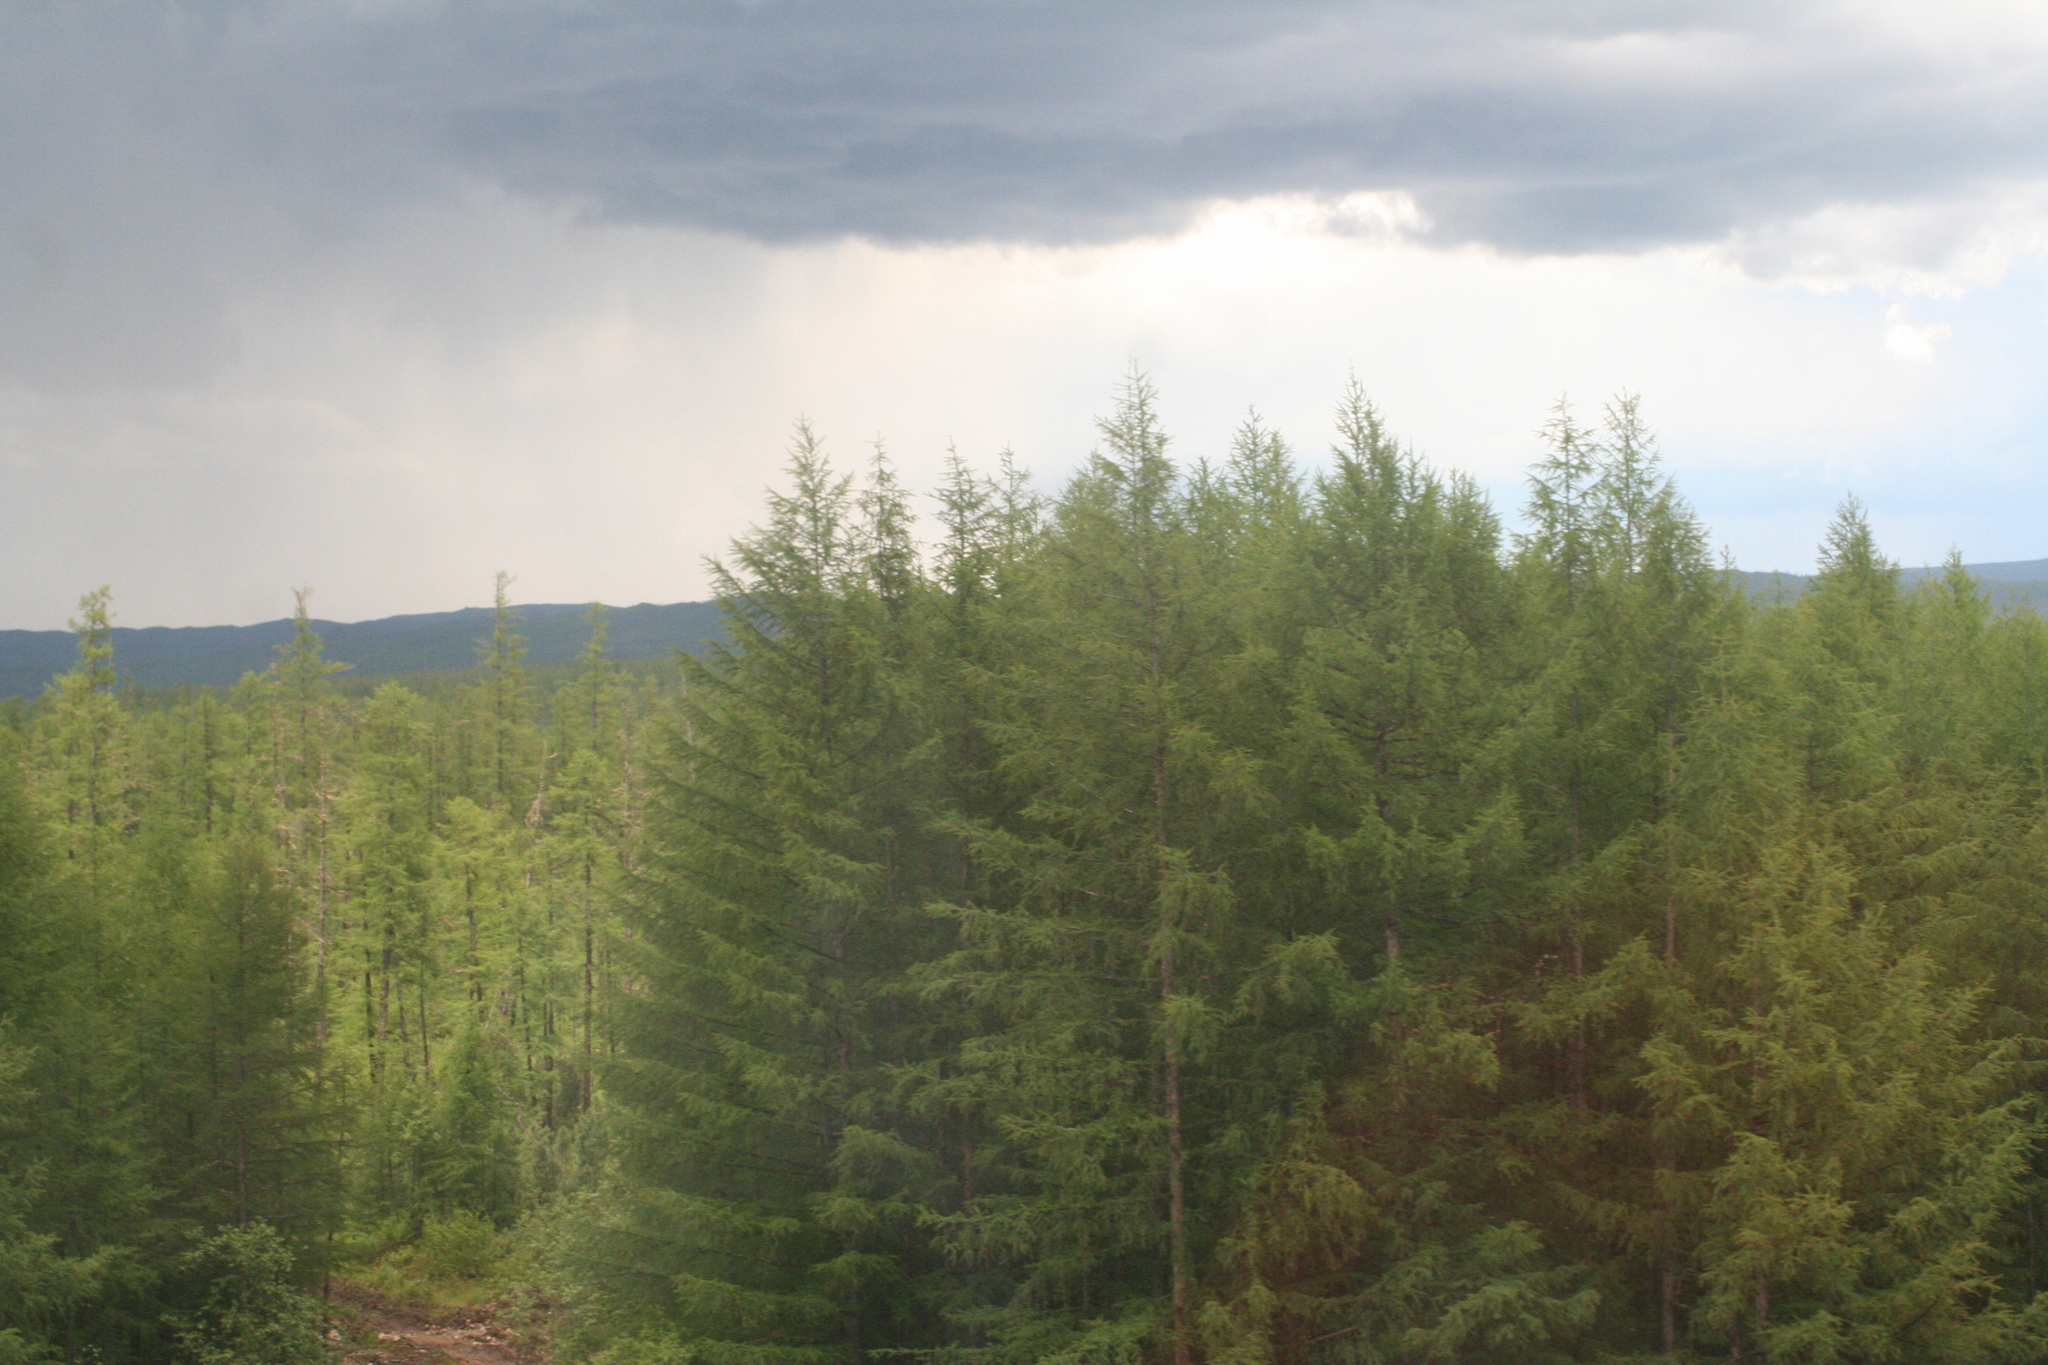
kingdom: Plantae
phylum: Tracheophyta
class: Pinopsida
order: Pinales
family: Pinaceae
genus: Larix
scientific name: Larix gmelinii
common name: Dahurian larch
